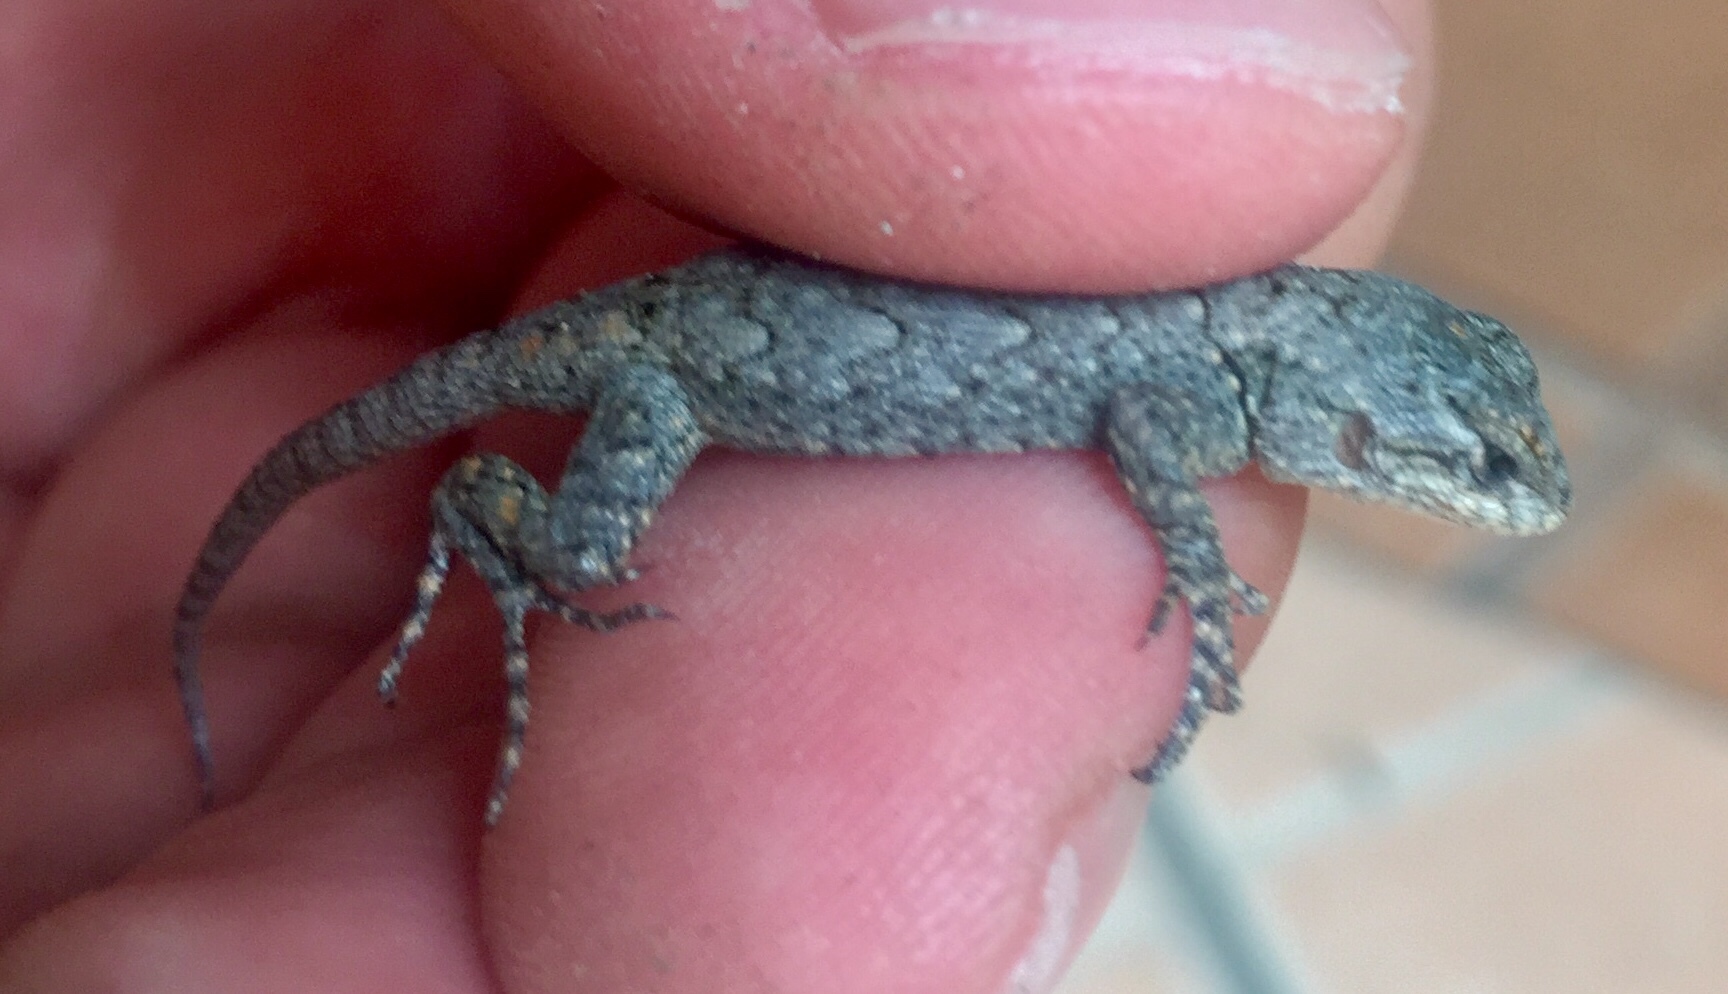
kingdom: Animalia
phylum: Chordata
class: Squamata
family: Phrynosomatidae
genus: Sceloporus
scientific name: Sceloporus grammicus
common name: Mesquite lizard
